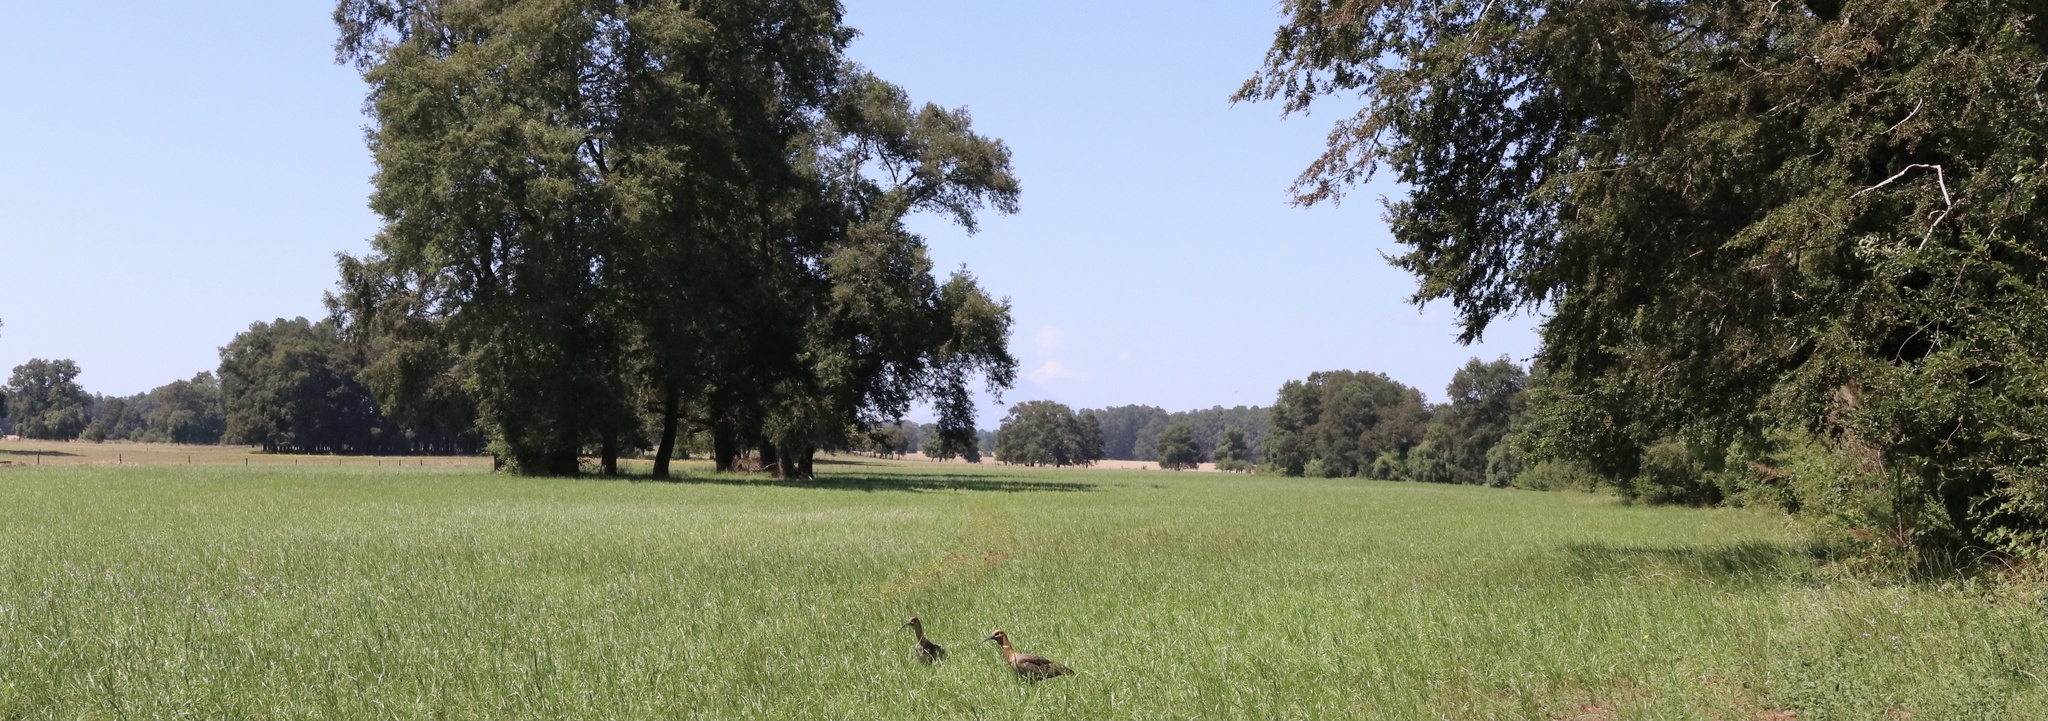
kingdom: Animalia
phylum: Chordata
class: Aves
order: Pelecaniformes
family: Threskiornithidae
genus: Theristicus
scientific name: Theristicus melanopis
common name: Black-faced ibis
